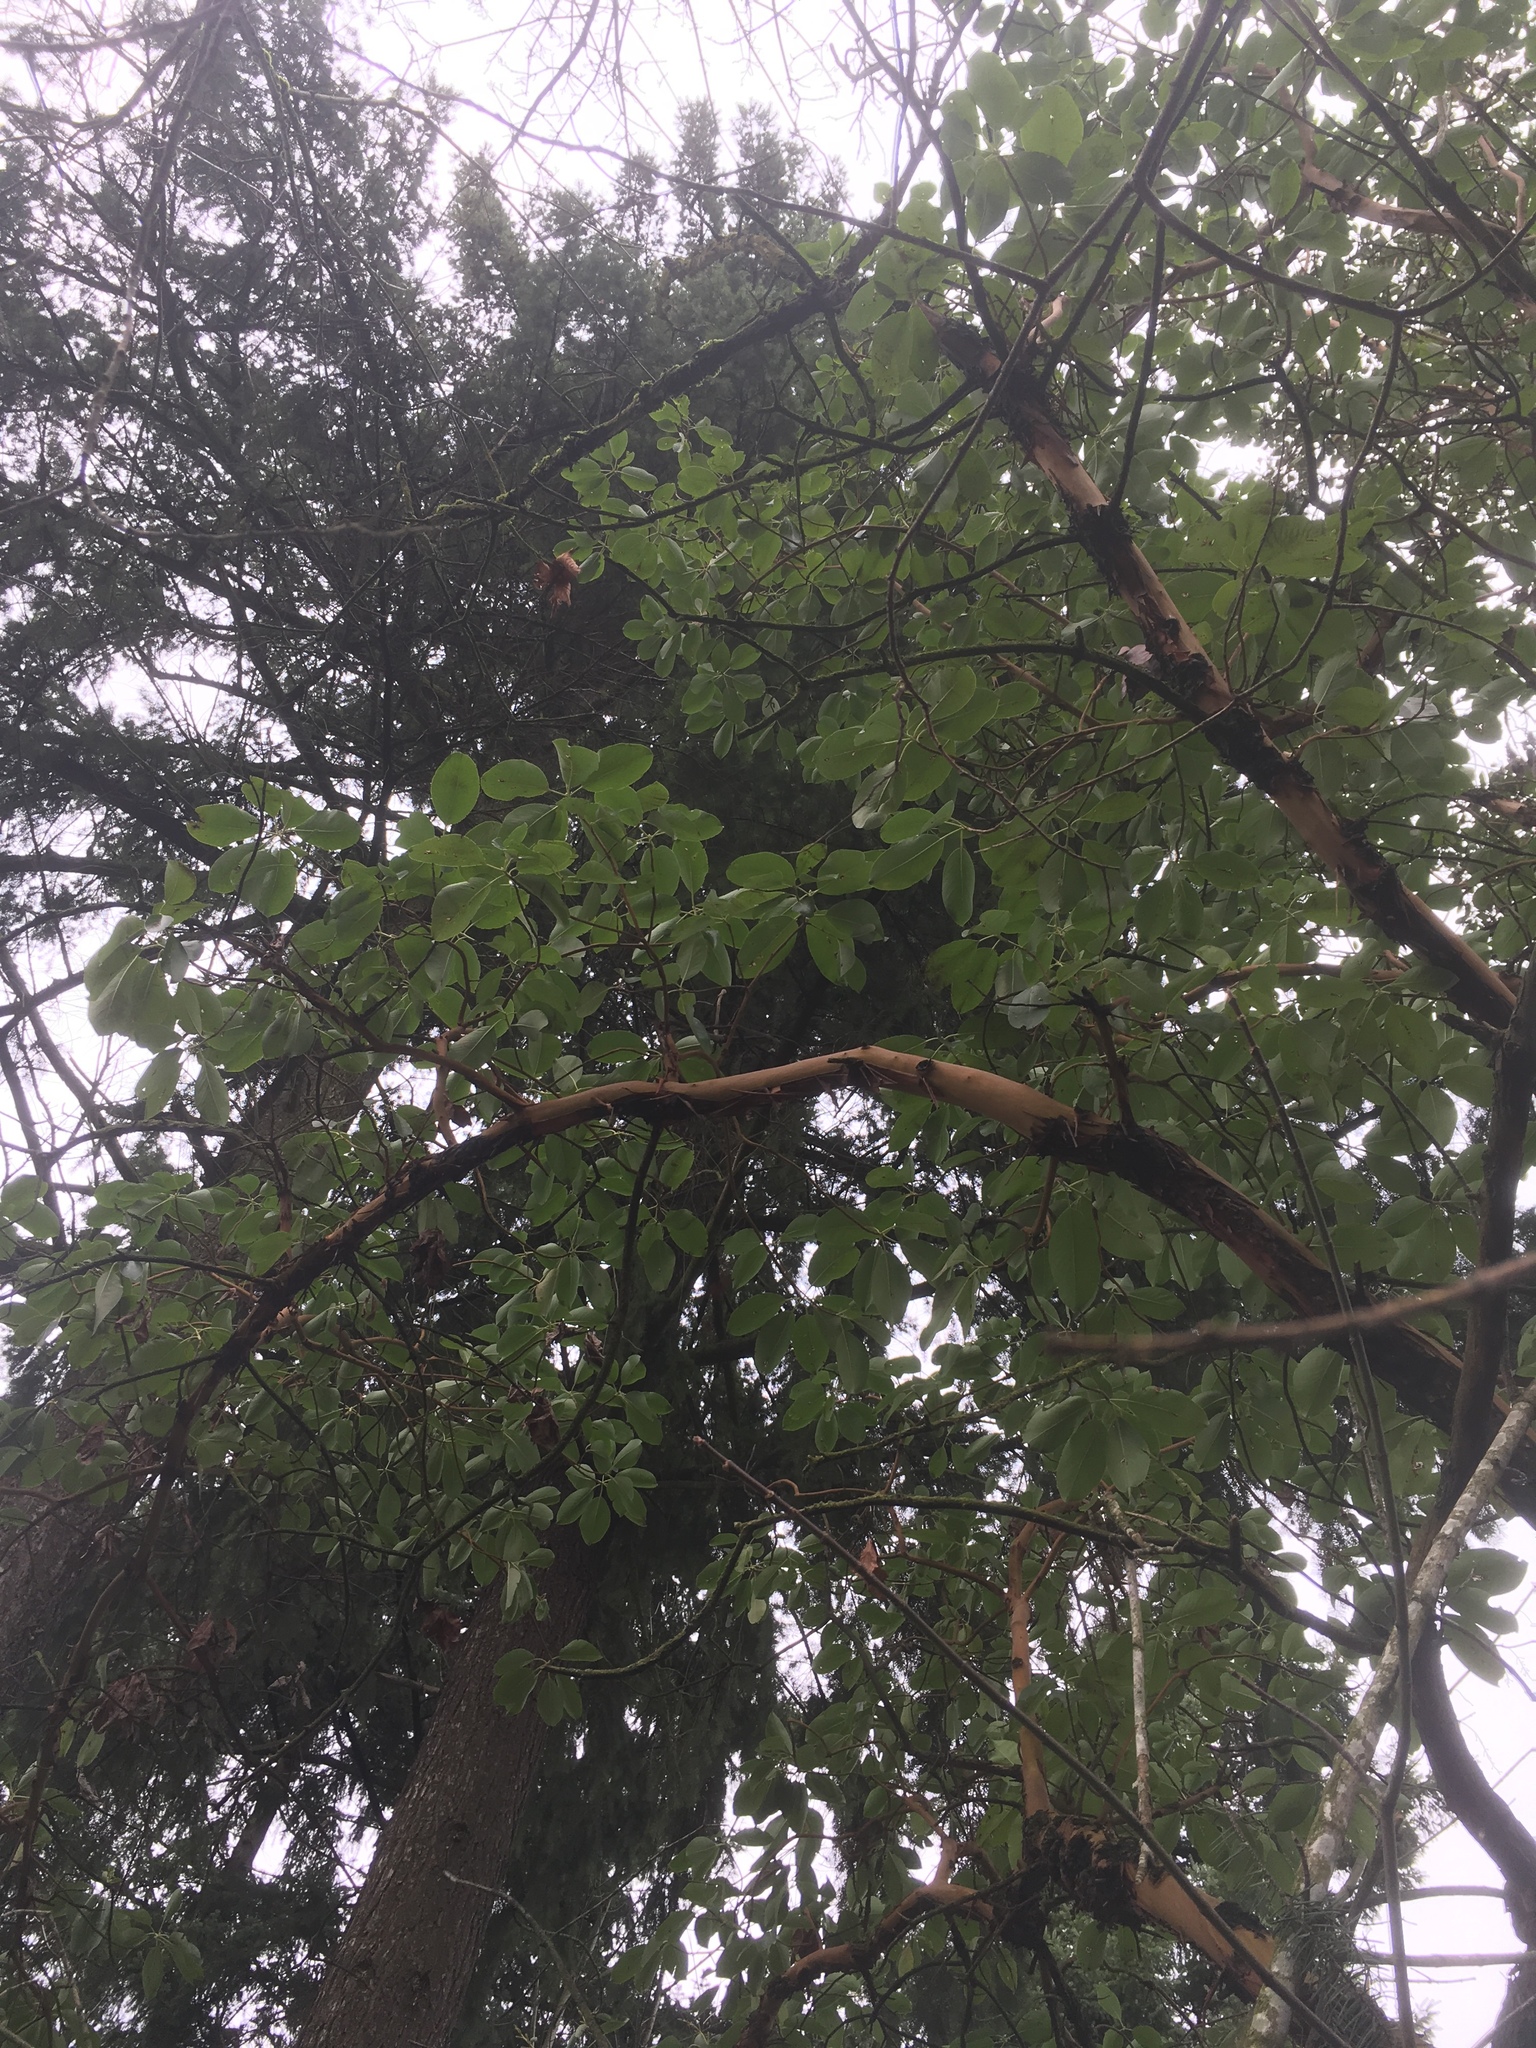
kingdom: Plantae
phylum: Tracheophyta
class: Magnoliopsida
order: Ericales
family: Ericaceae
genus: Arbutus
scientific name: Arbutus menziesii
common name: Pacific madrone
